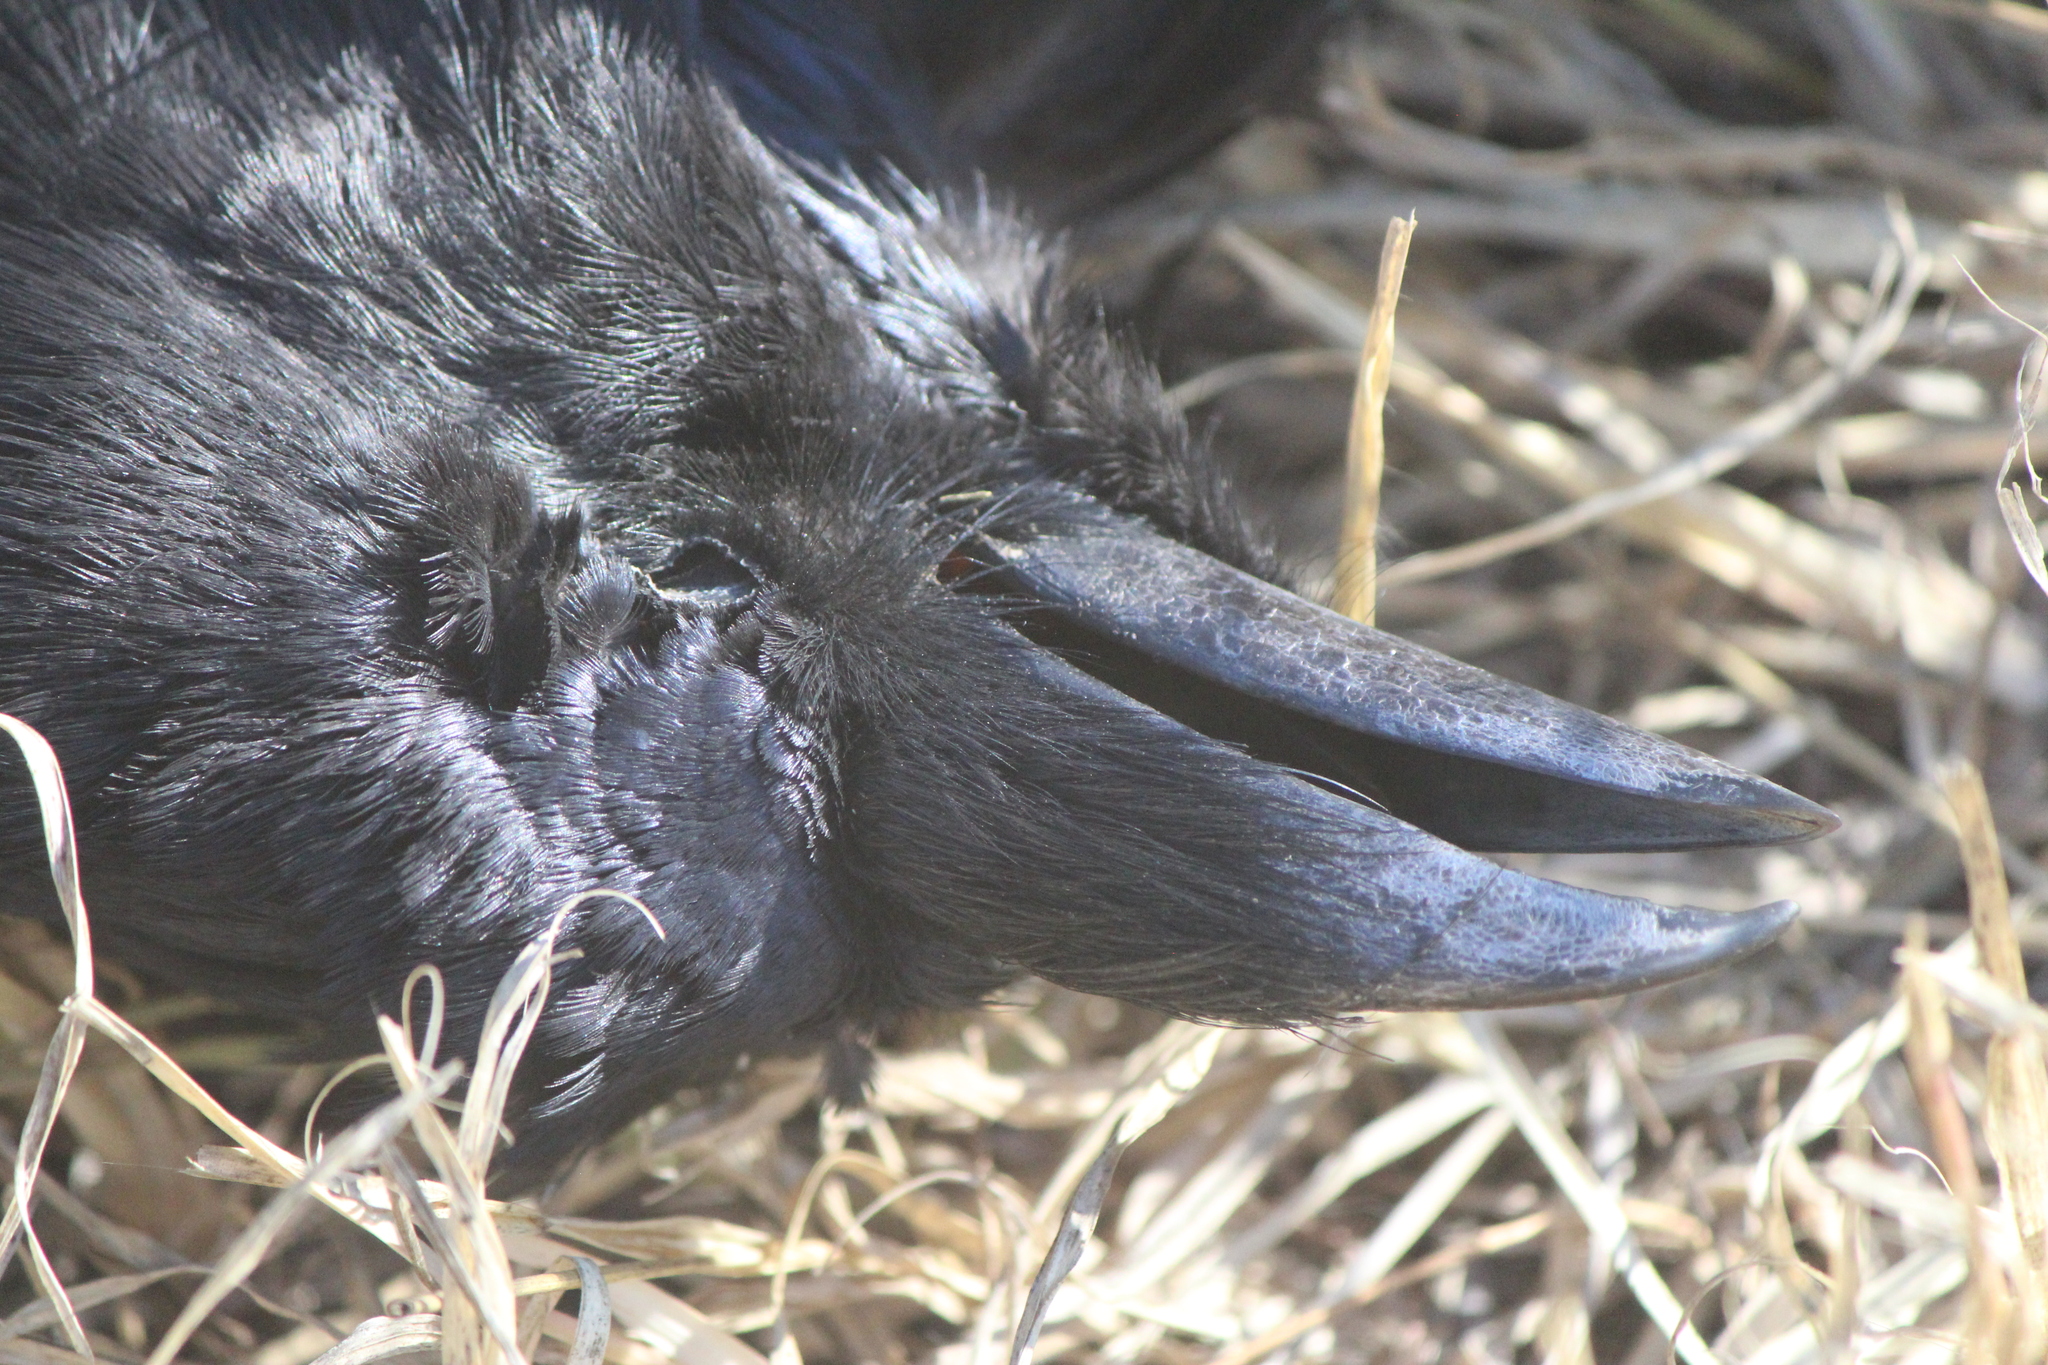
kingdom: Animalia
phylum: Chordata
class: Aves
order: Passeriformes
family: Corvidae
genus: Corvus
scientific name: Corvus cryptoleucus
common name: Chihuahuan raven
